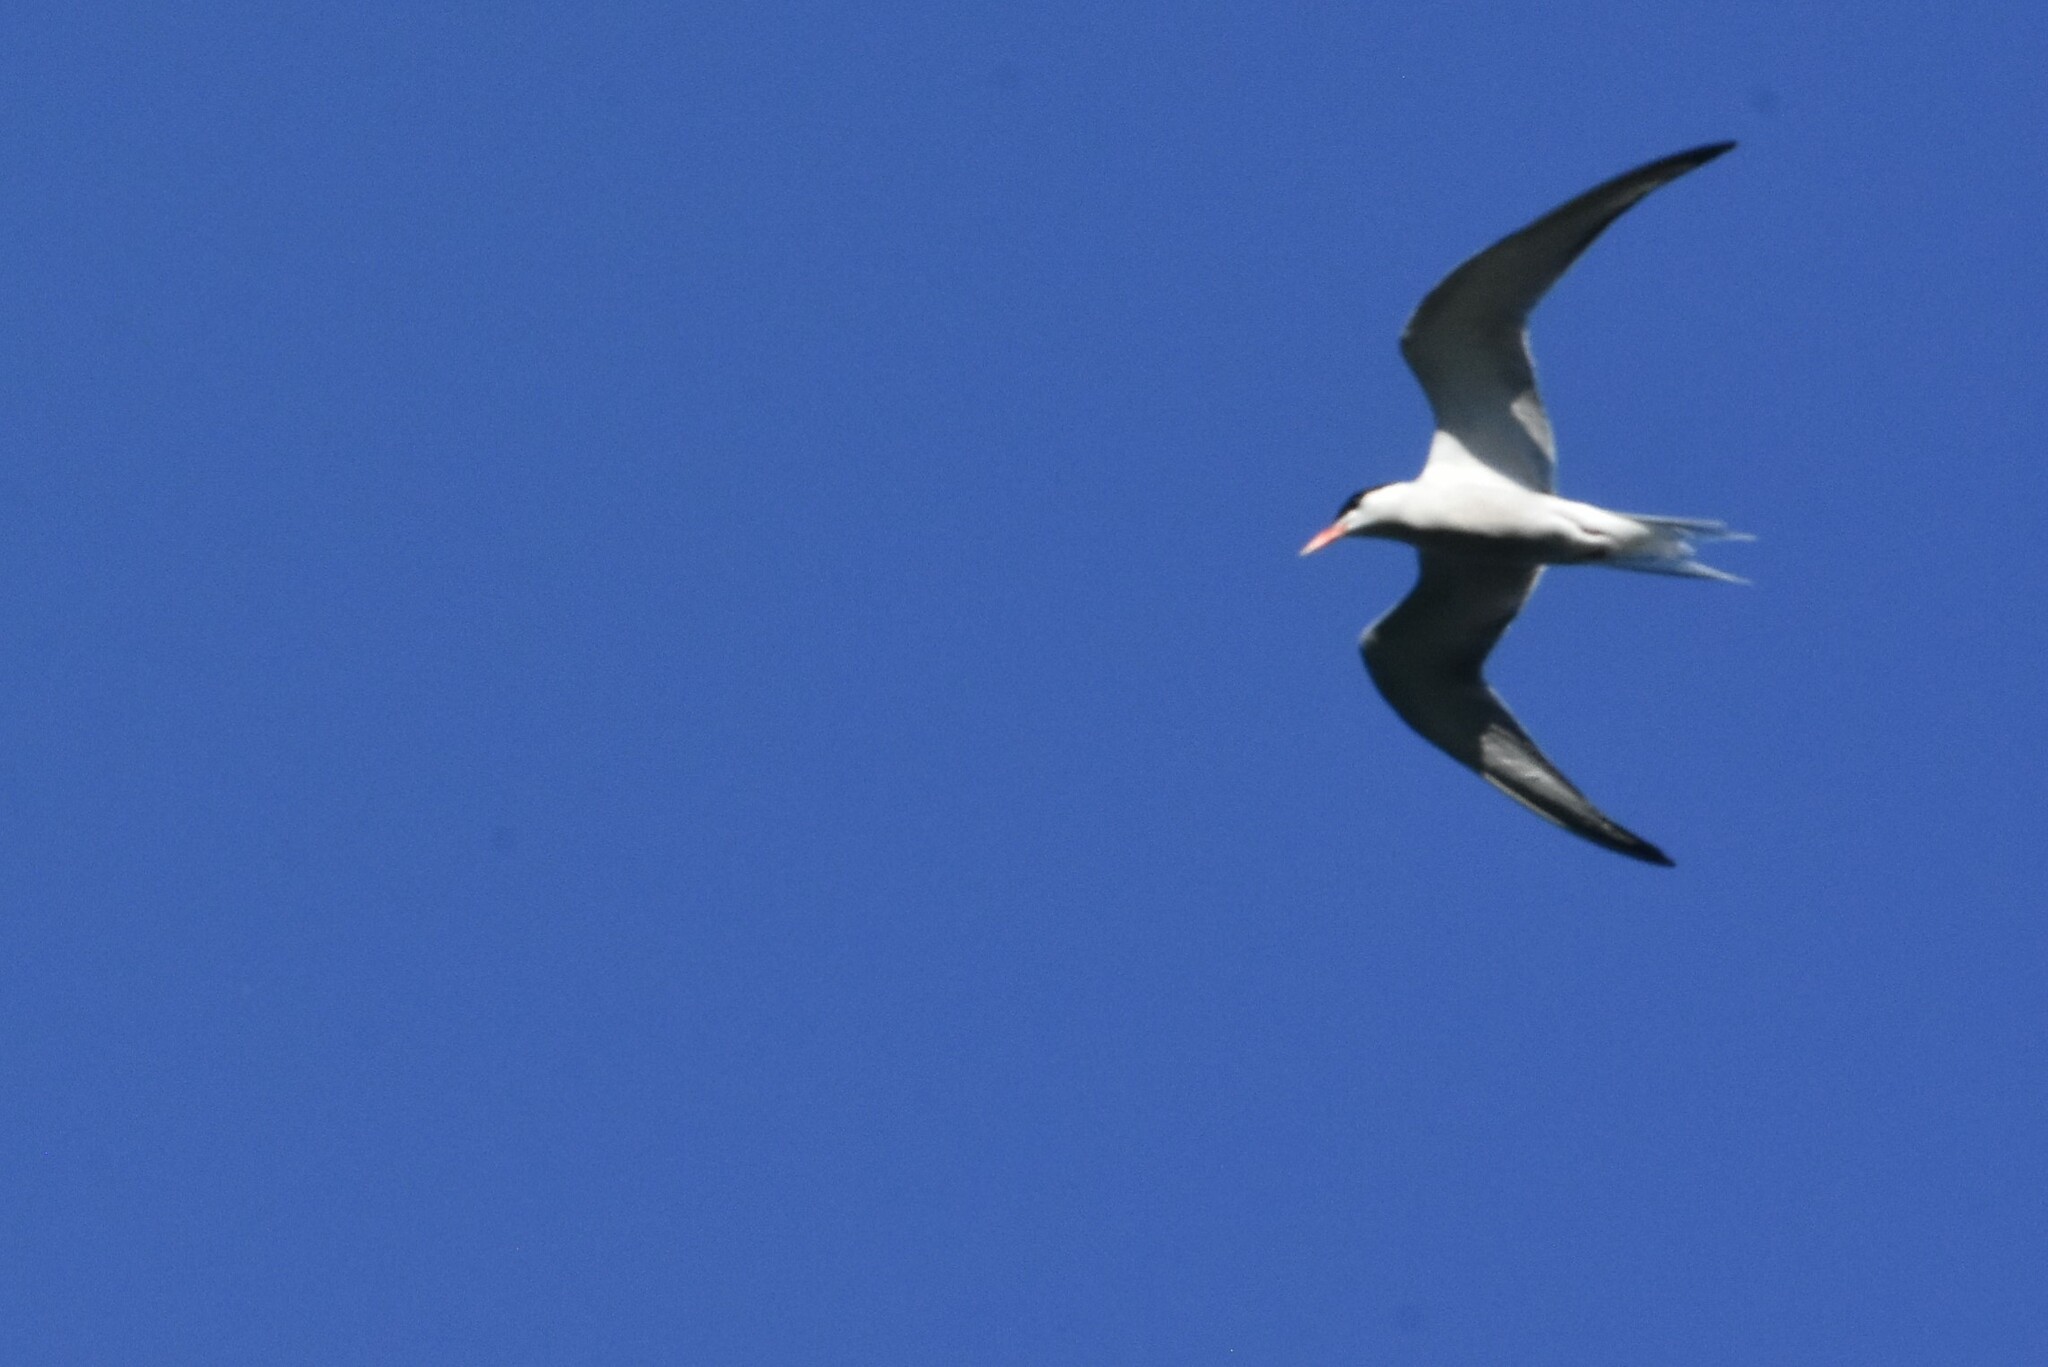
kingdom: Animalia
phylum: Chordata
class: Aves
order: Charadriiformes
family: Laridae
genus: Sterna
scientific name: Sterna hirundo
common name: Common tern
